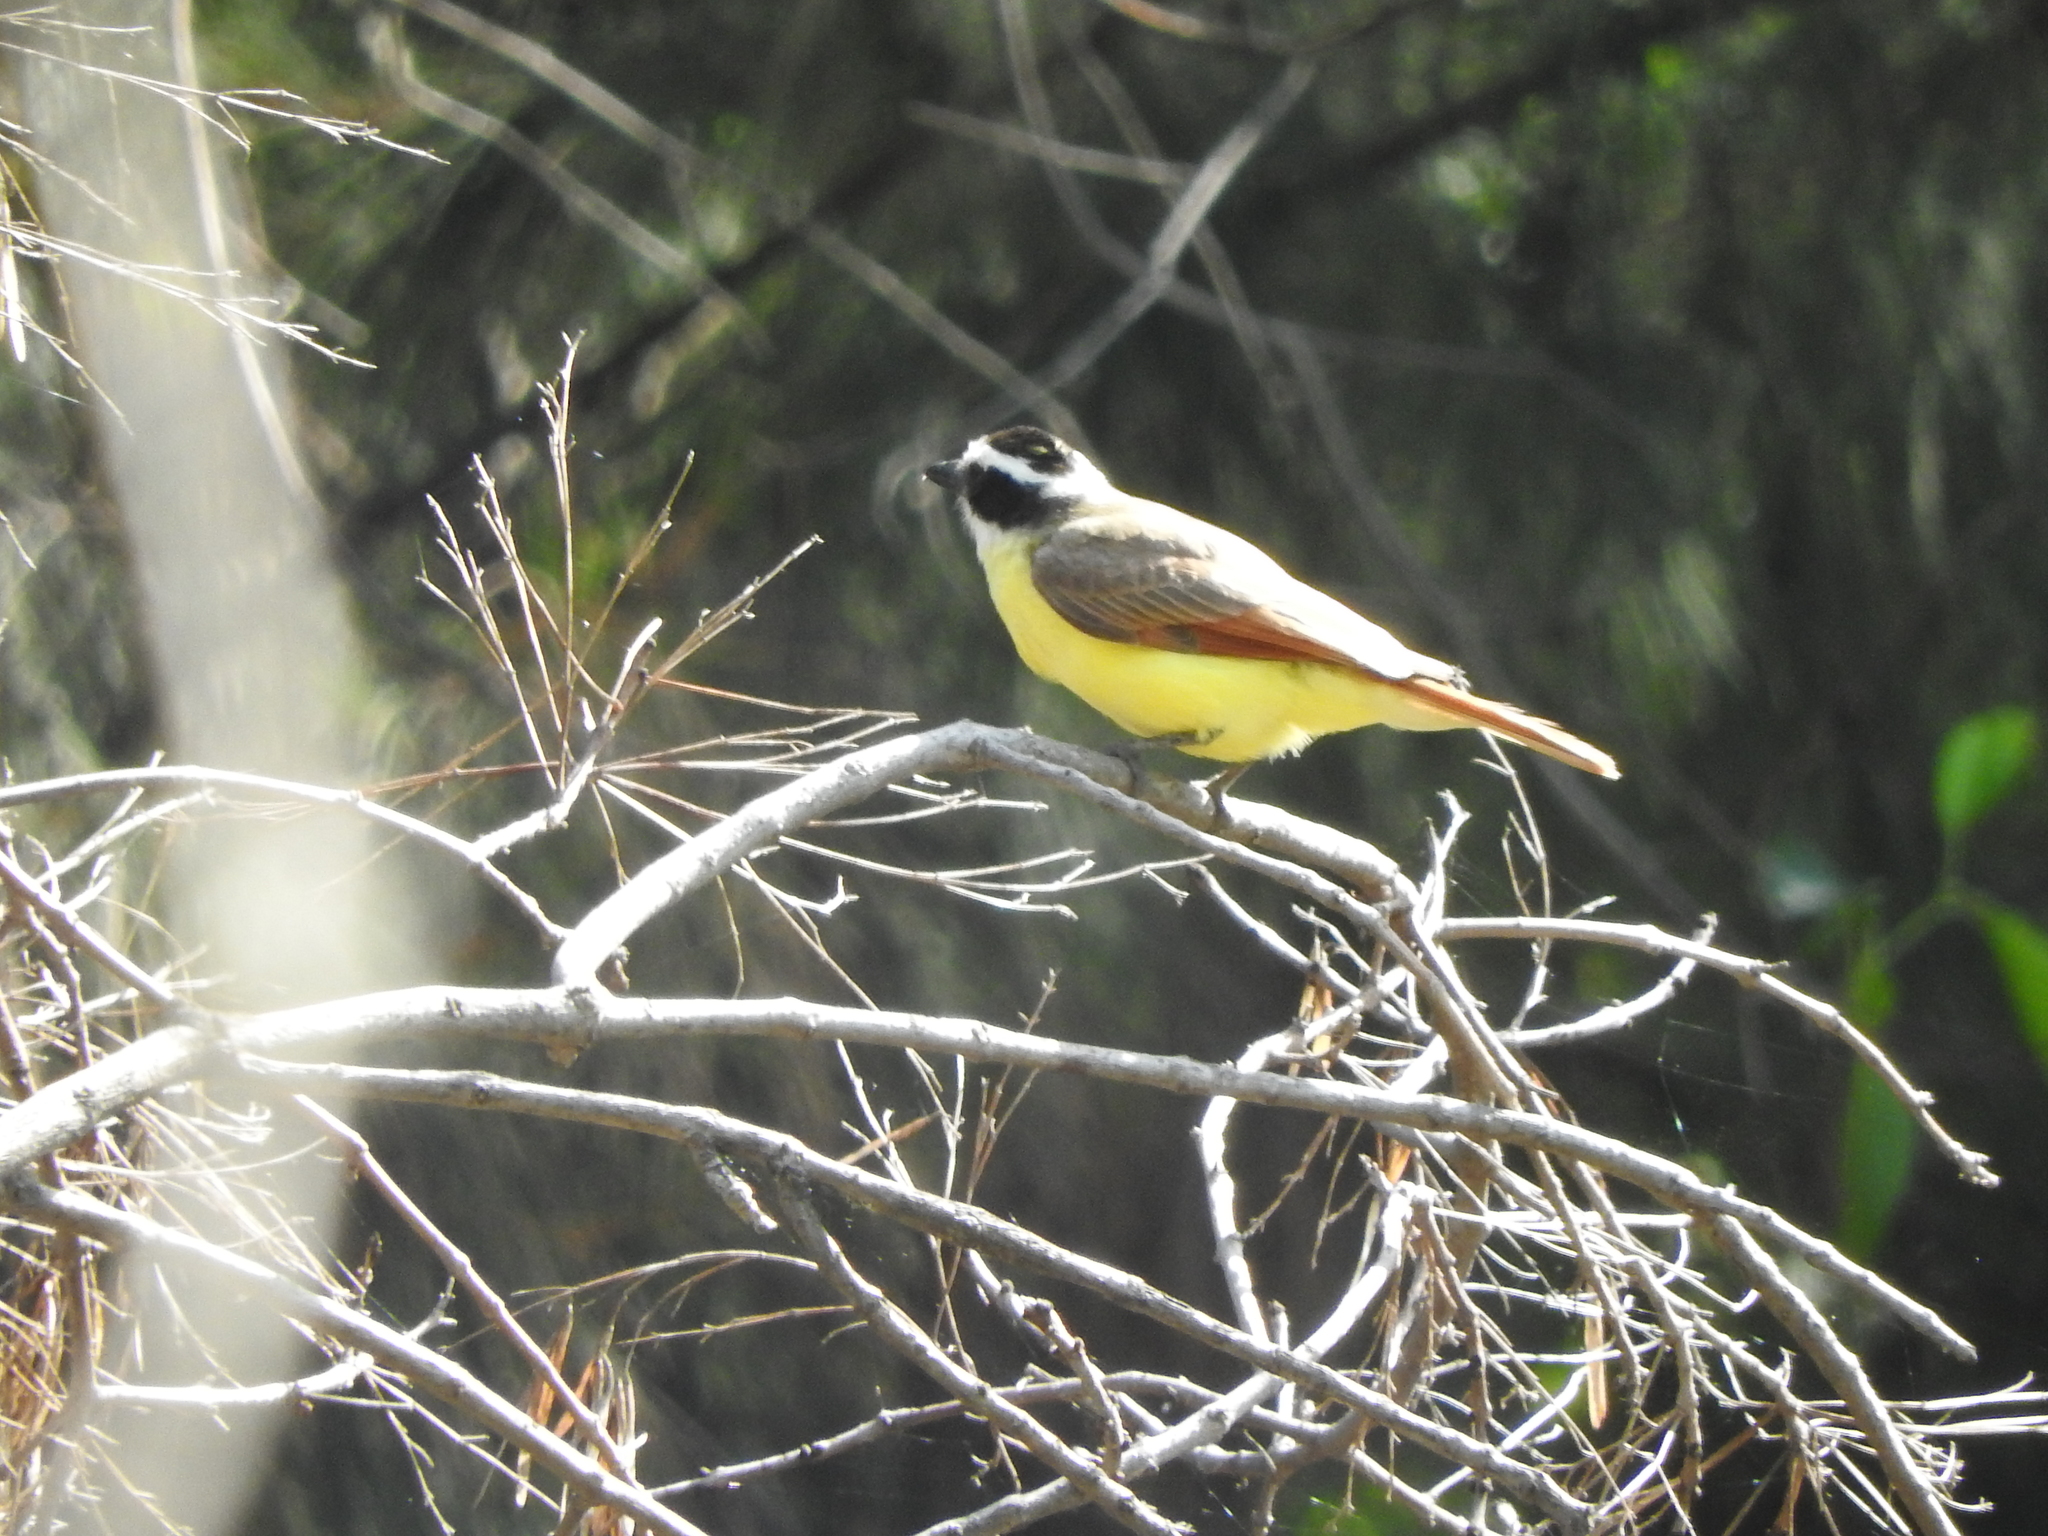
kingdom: Animalia
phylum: Chordata
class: Aves
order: Passeriformes
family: Tyrannidae
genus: Pitangus
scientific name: Pitangus sulphuratus
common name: Great kiskadee
